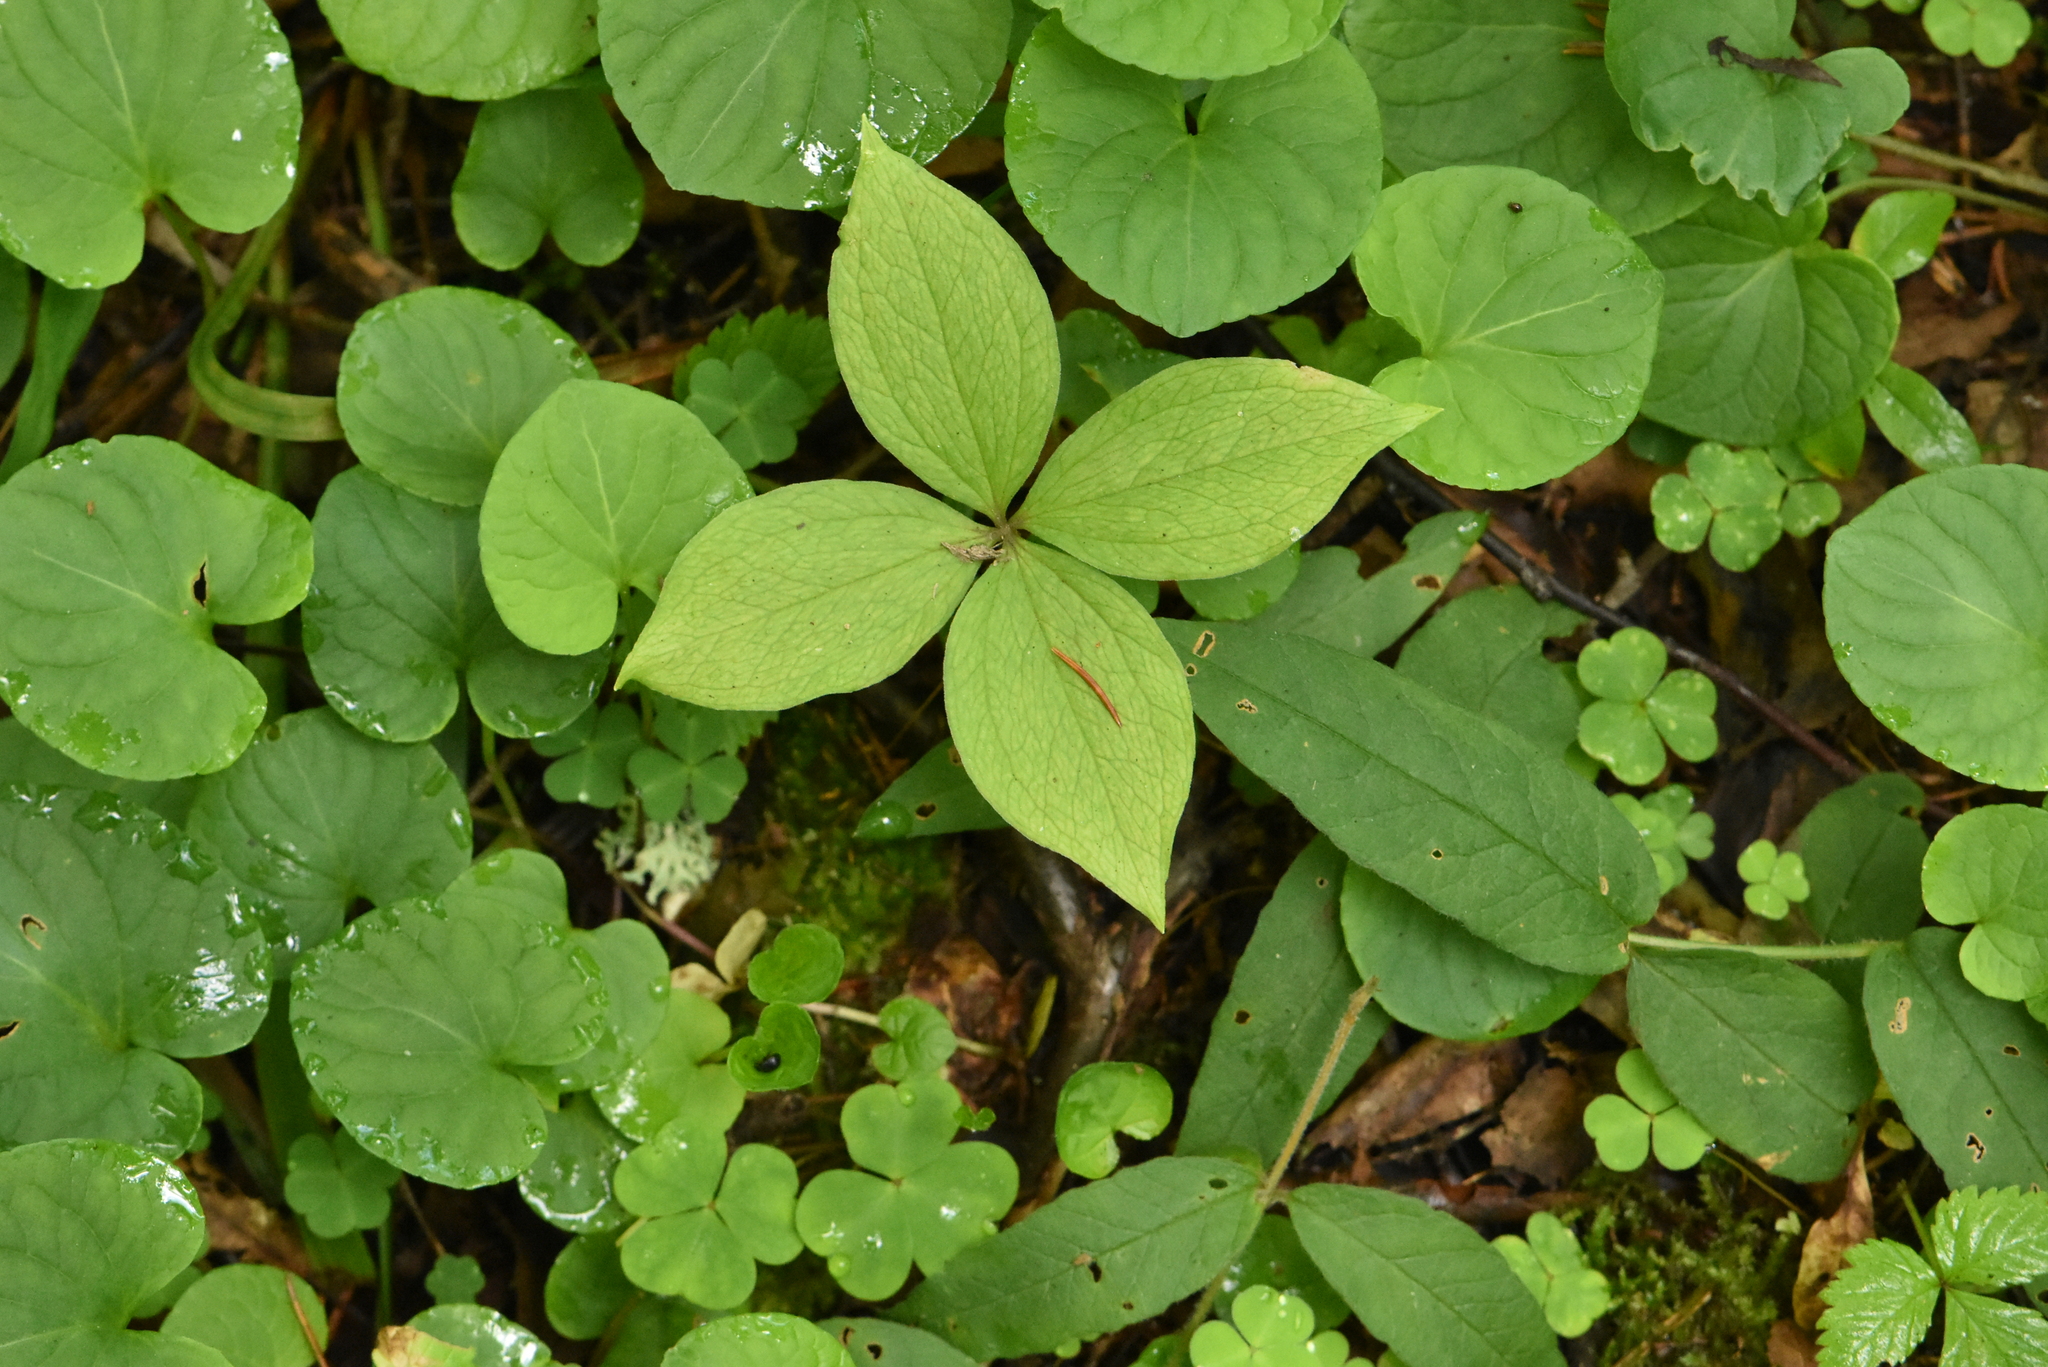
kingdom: Plantae
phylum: Tracheophyta
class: Liliopsida
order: Liliales
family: Melanthiaceae
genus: Paris
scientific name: Paris quadrifolia
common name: Herb-paris
